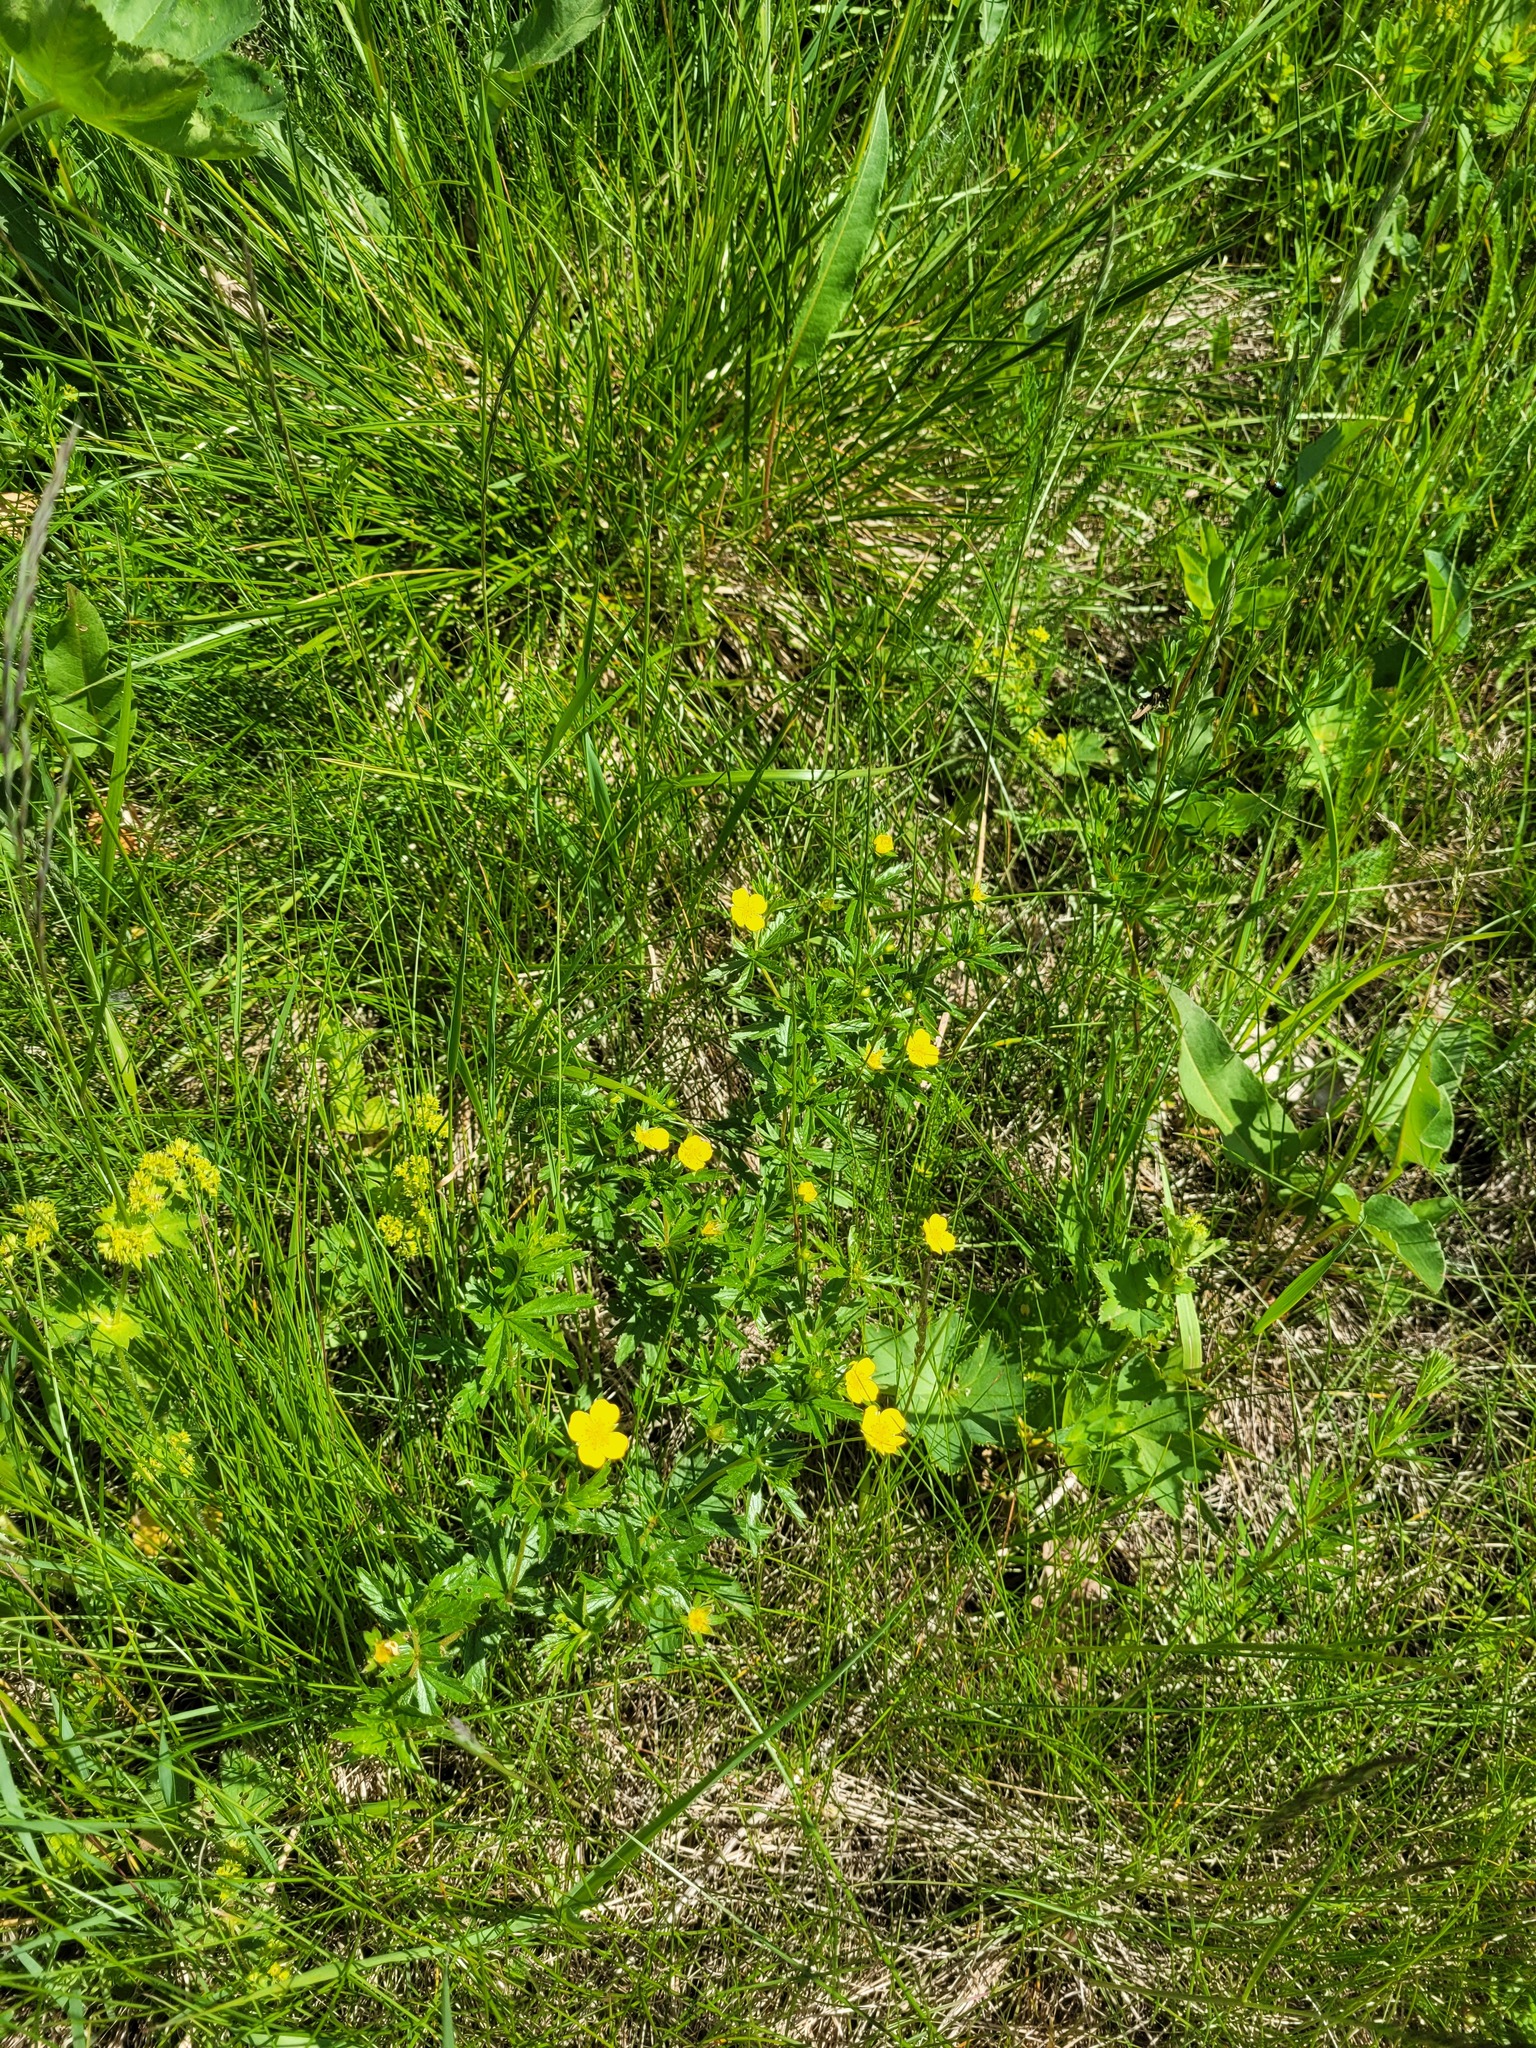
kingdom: Plantae
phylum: Tracheophyta
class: Magnoliopsida
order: Rosales
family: Rosaceae
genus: Potentilla
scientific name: Potentilla erecta
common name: Tormentil
